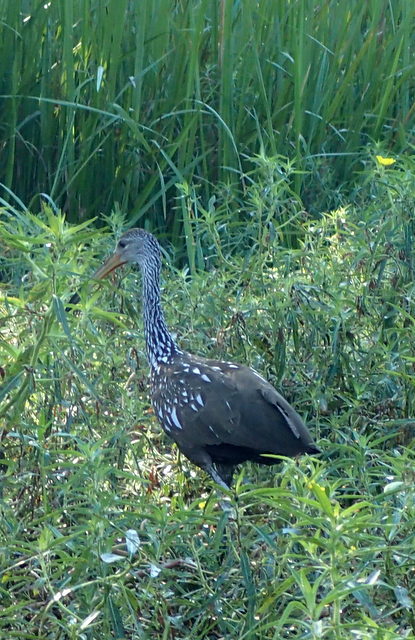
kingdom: Animalia
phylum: Chordata
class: Aves
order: Gruiformes
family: Aramidae
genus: Aramus
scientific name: Aramus guarauna
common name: Limpkin
